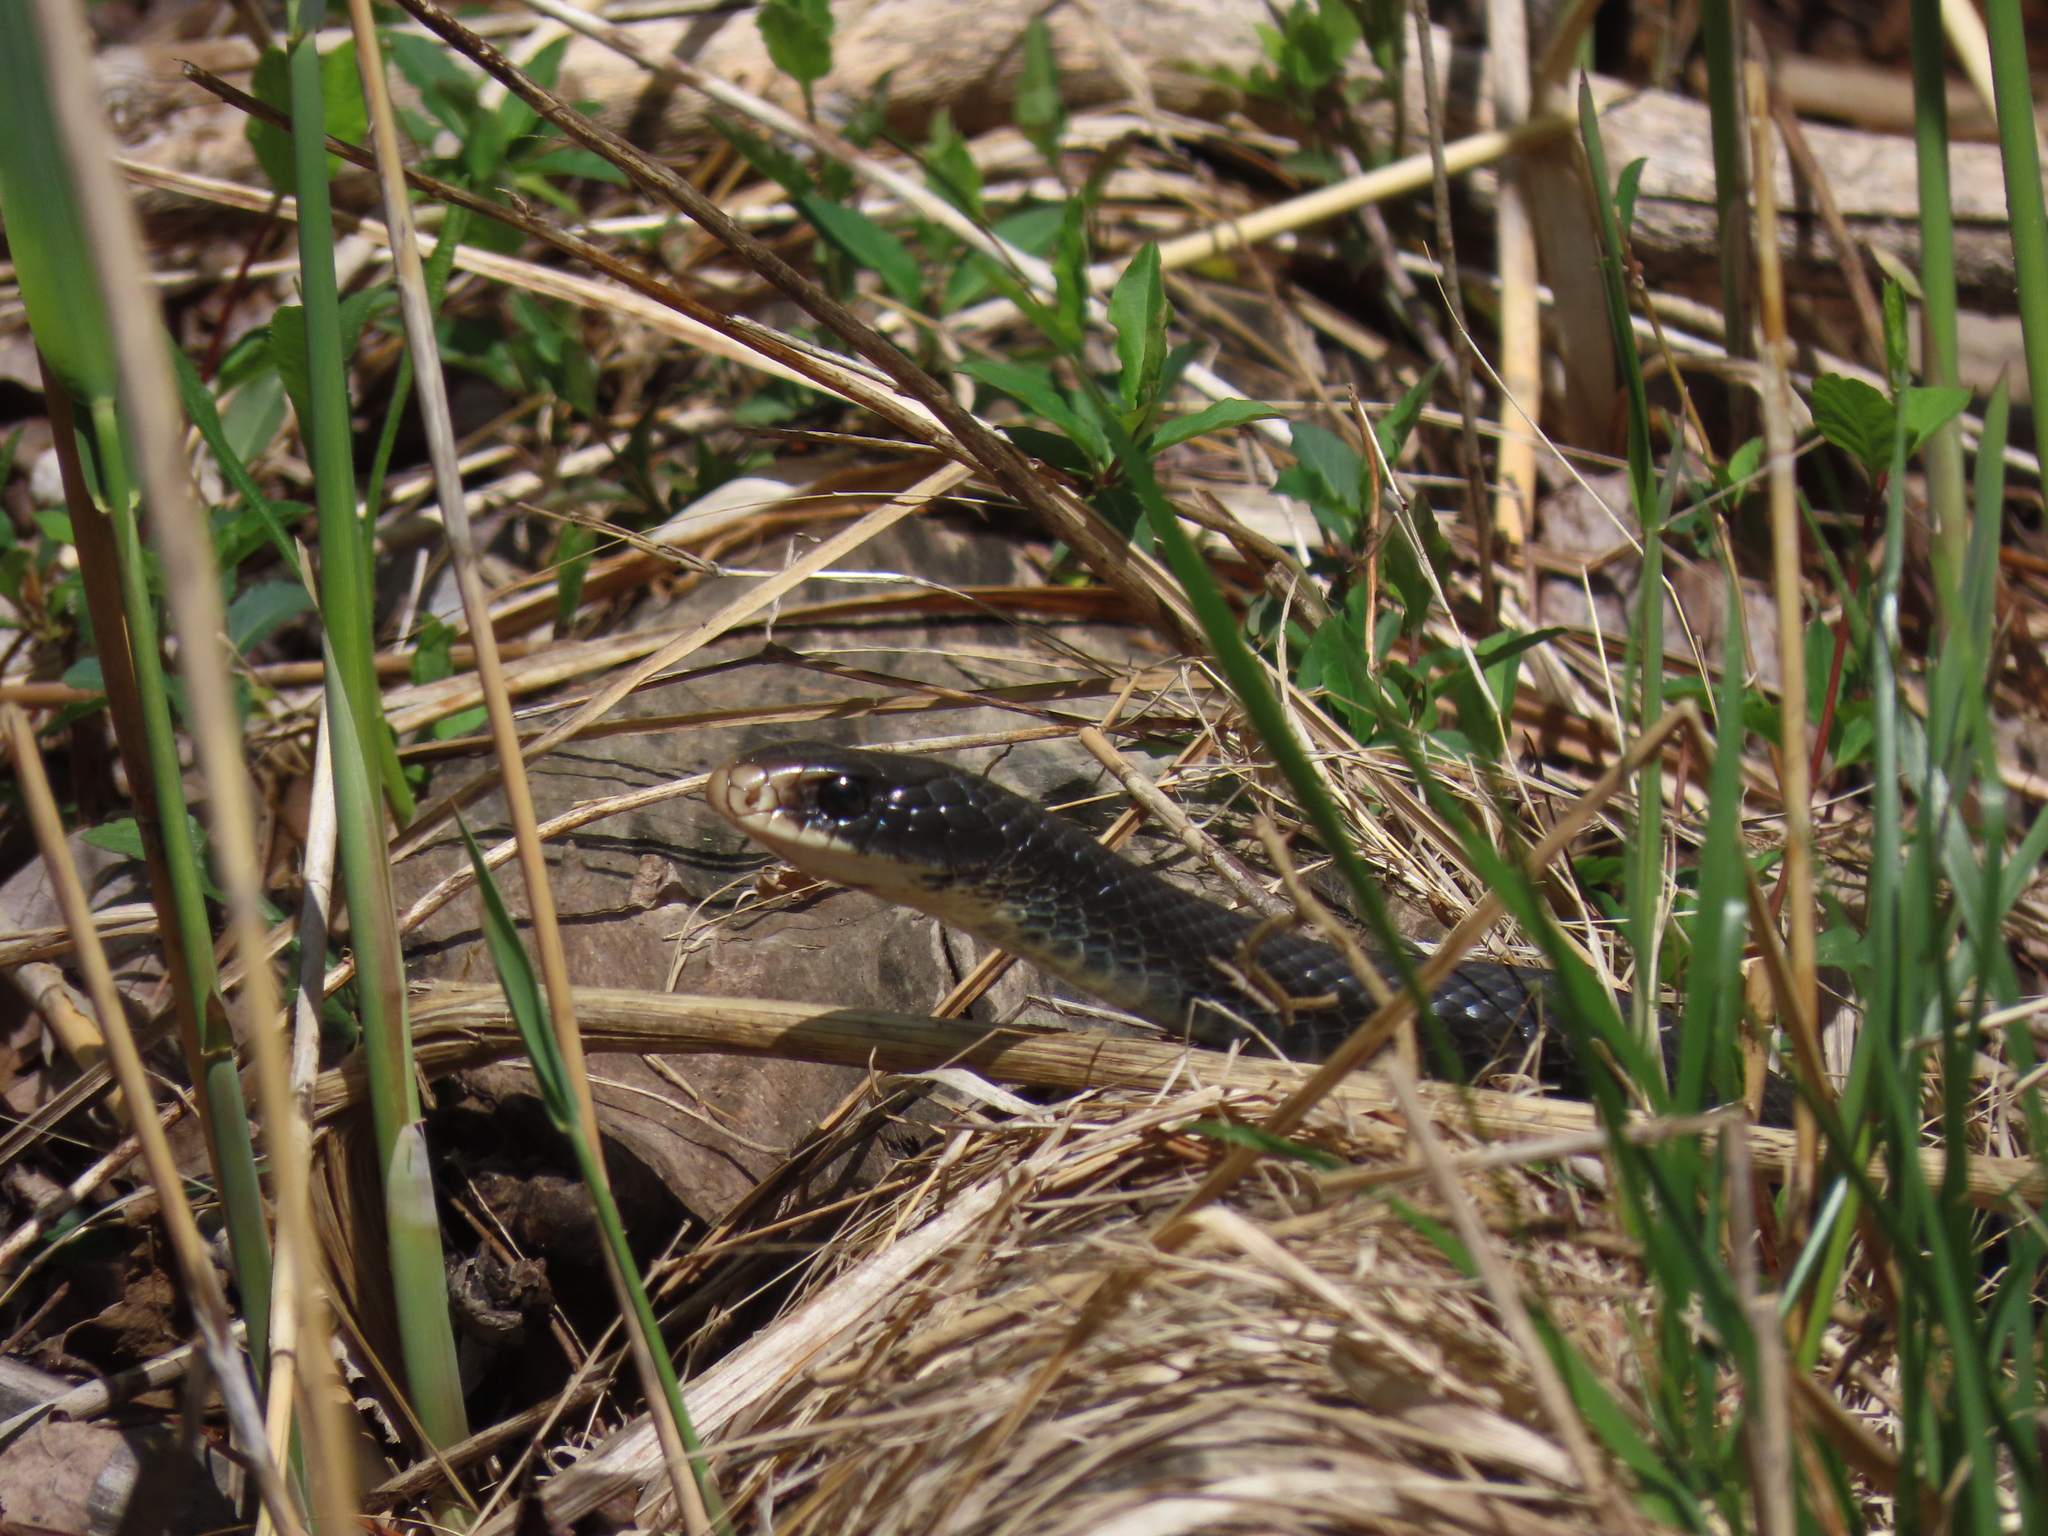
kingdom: Animalia
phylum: Chordata
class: Squamata
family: Colubridae
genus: Coluber
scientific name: Coluber constrictor
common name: Eastern racer
